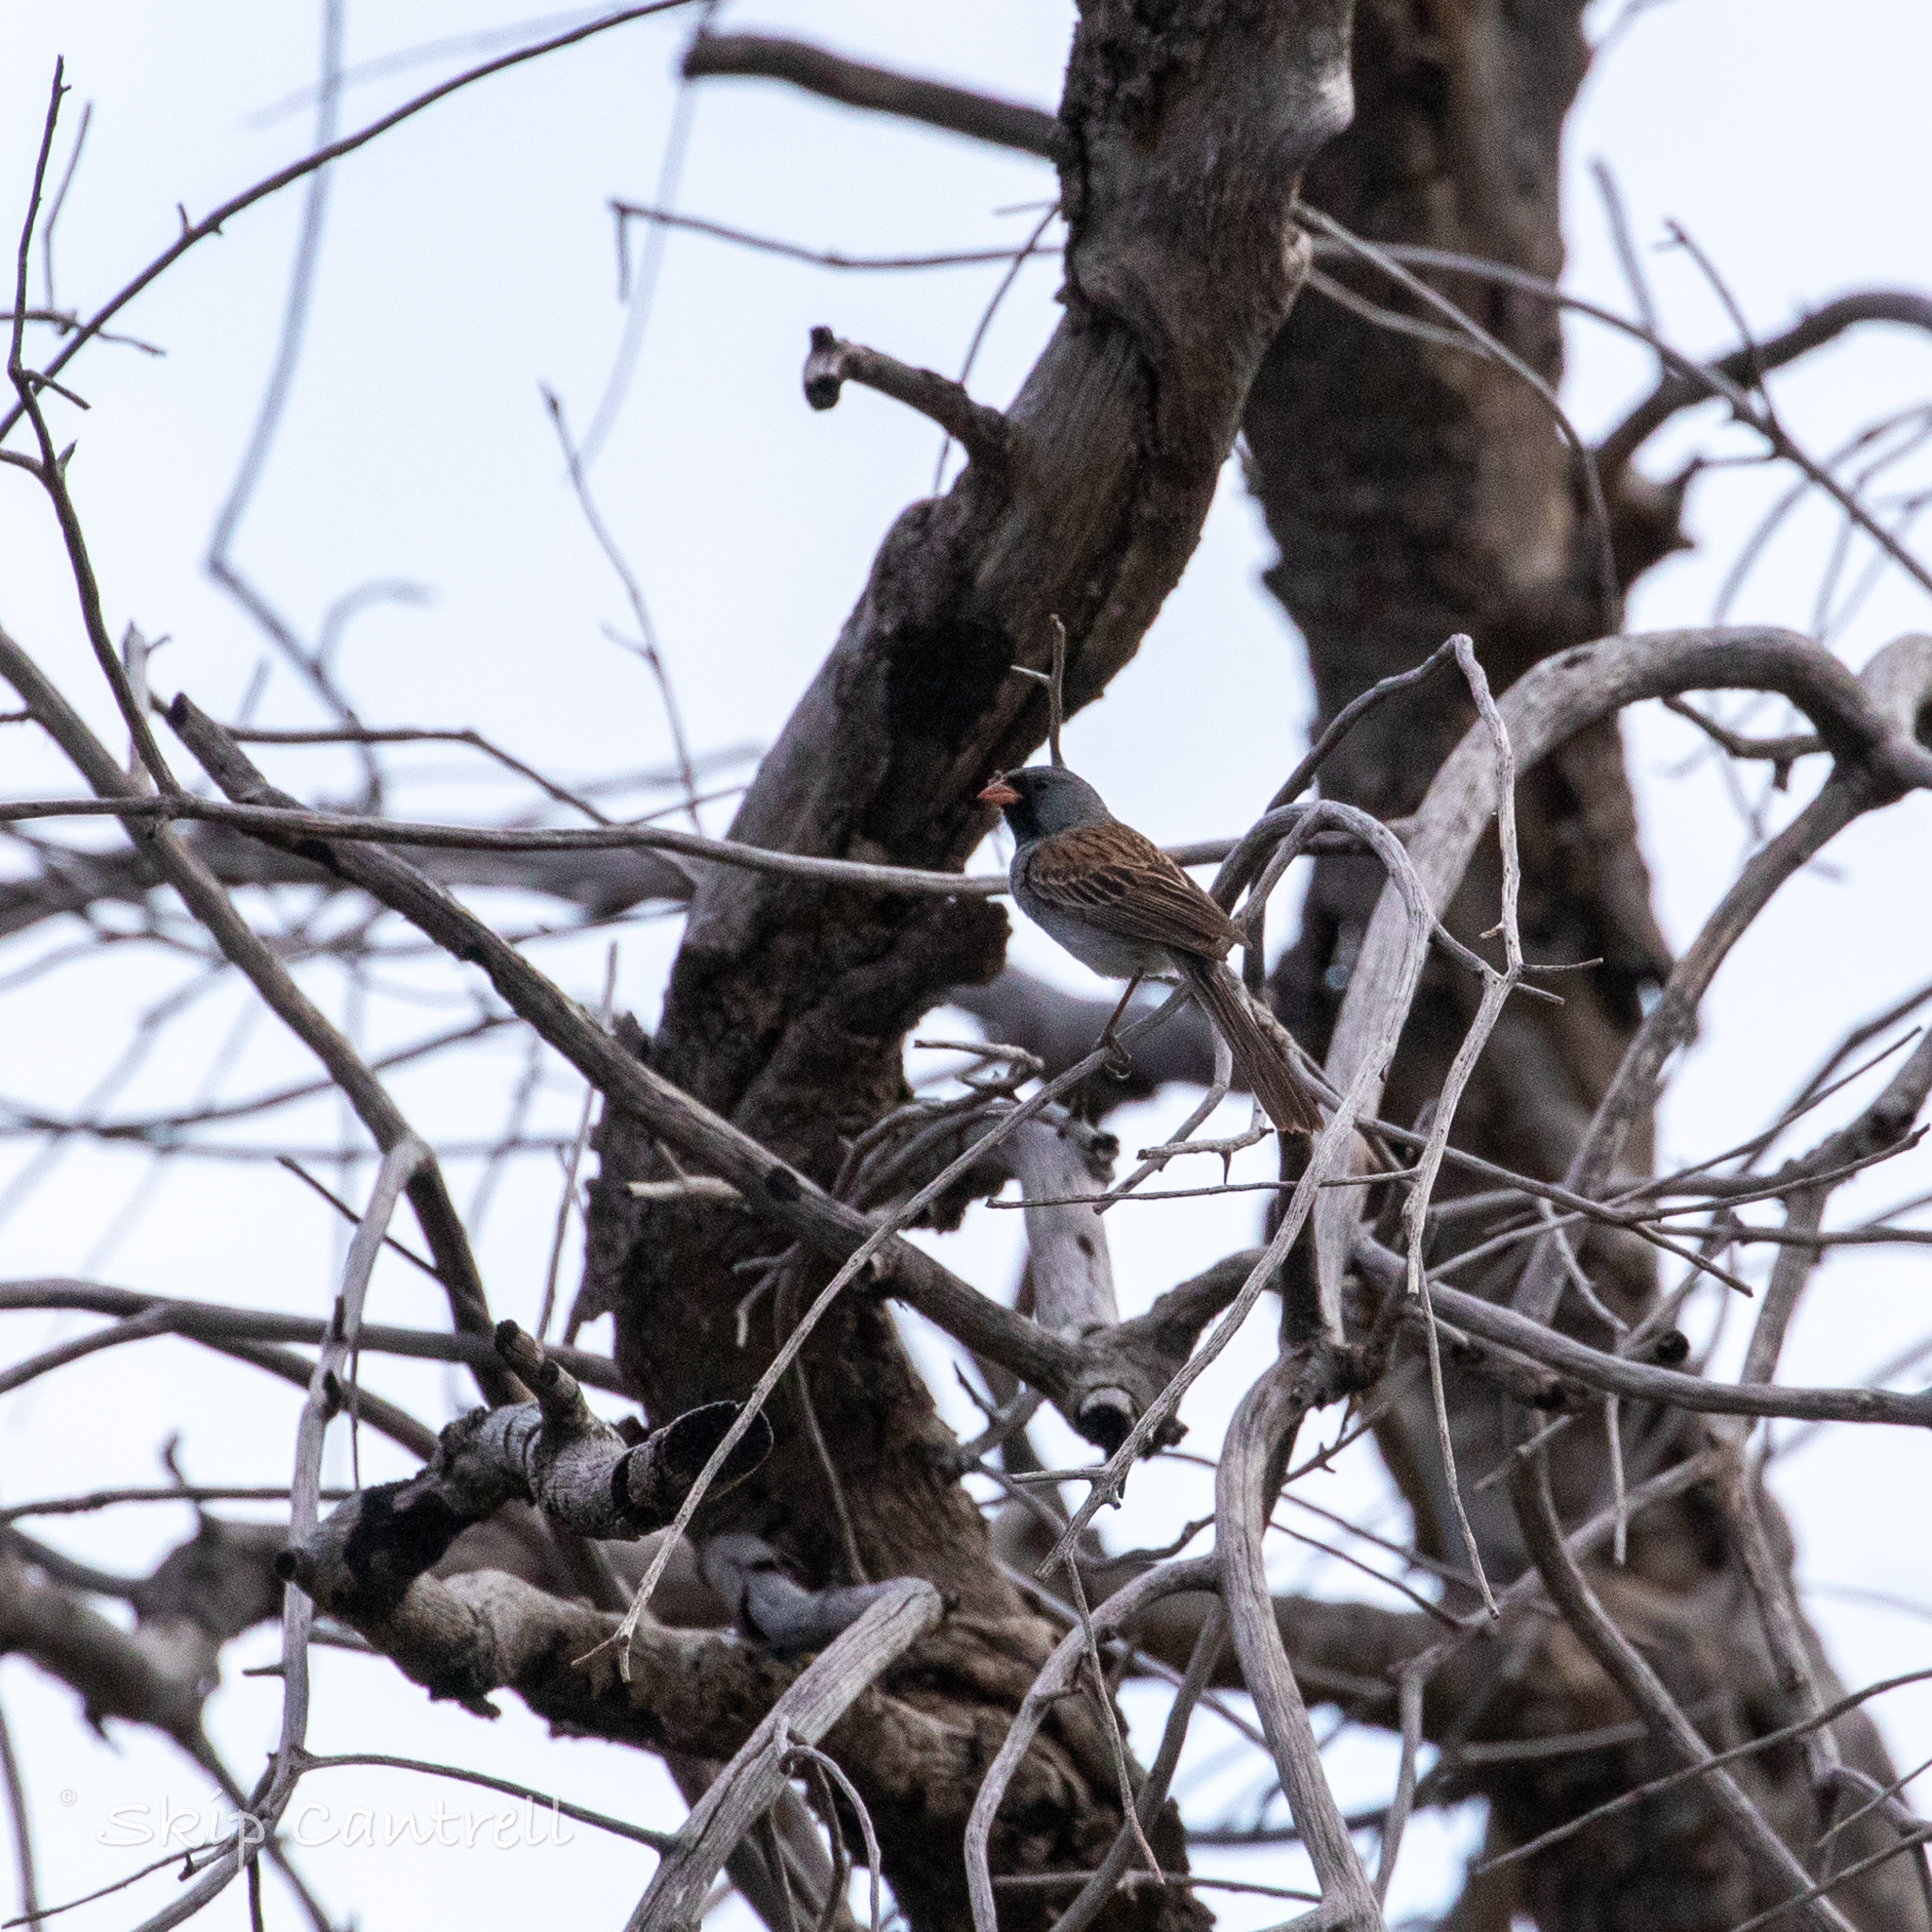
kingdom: Animalia
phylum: Chordata
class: Aves
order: Passeriformes
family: Passerellidae
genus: Spizella
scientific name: Spizella atrogularis
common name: Black-chinned sparrow
